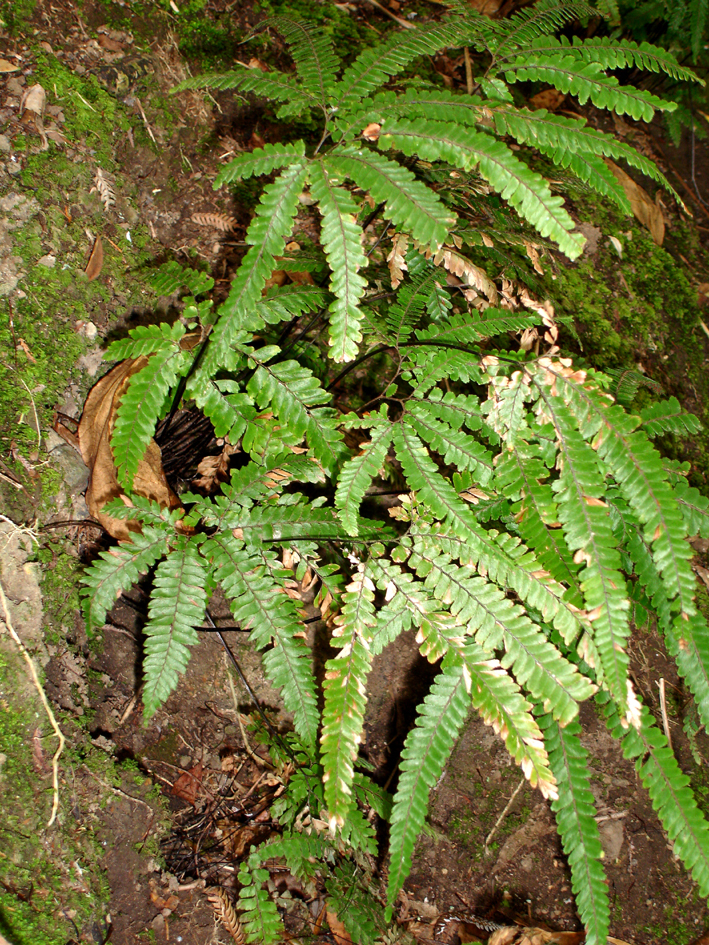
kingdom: Plantae
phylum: Tracheophyta
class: Polypodiopsida
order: Polypodiales
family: Pteridaceae
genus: Adiantum
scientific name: Adiantum hispidulum
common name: Rough maidenhair
